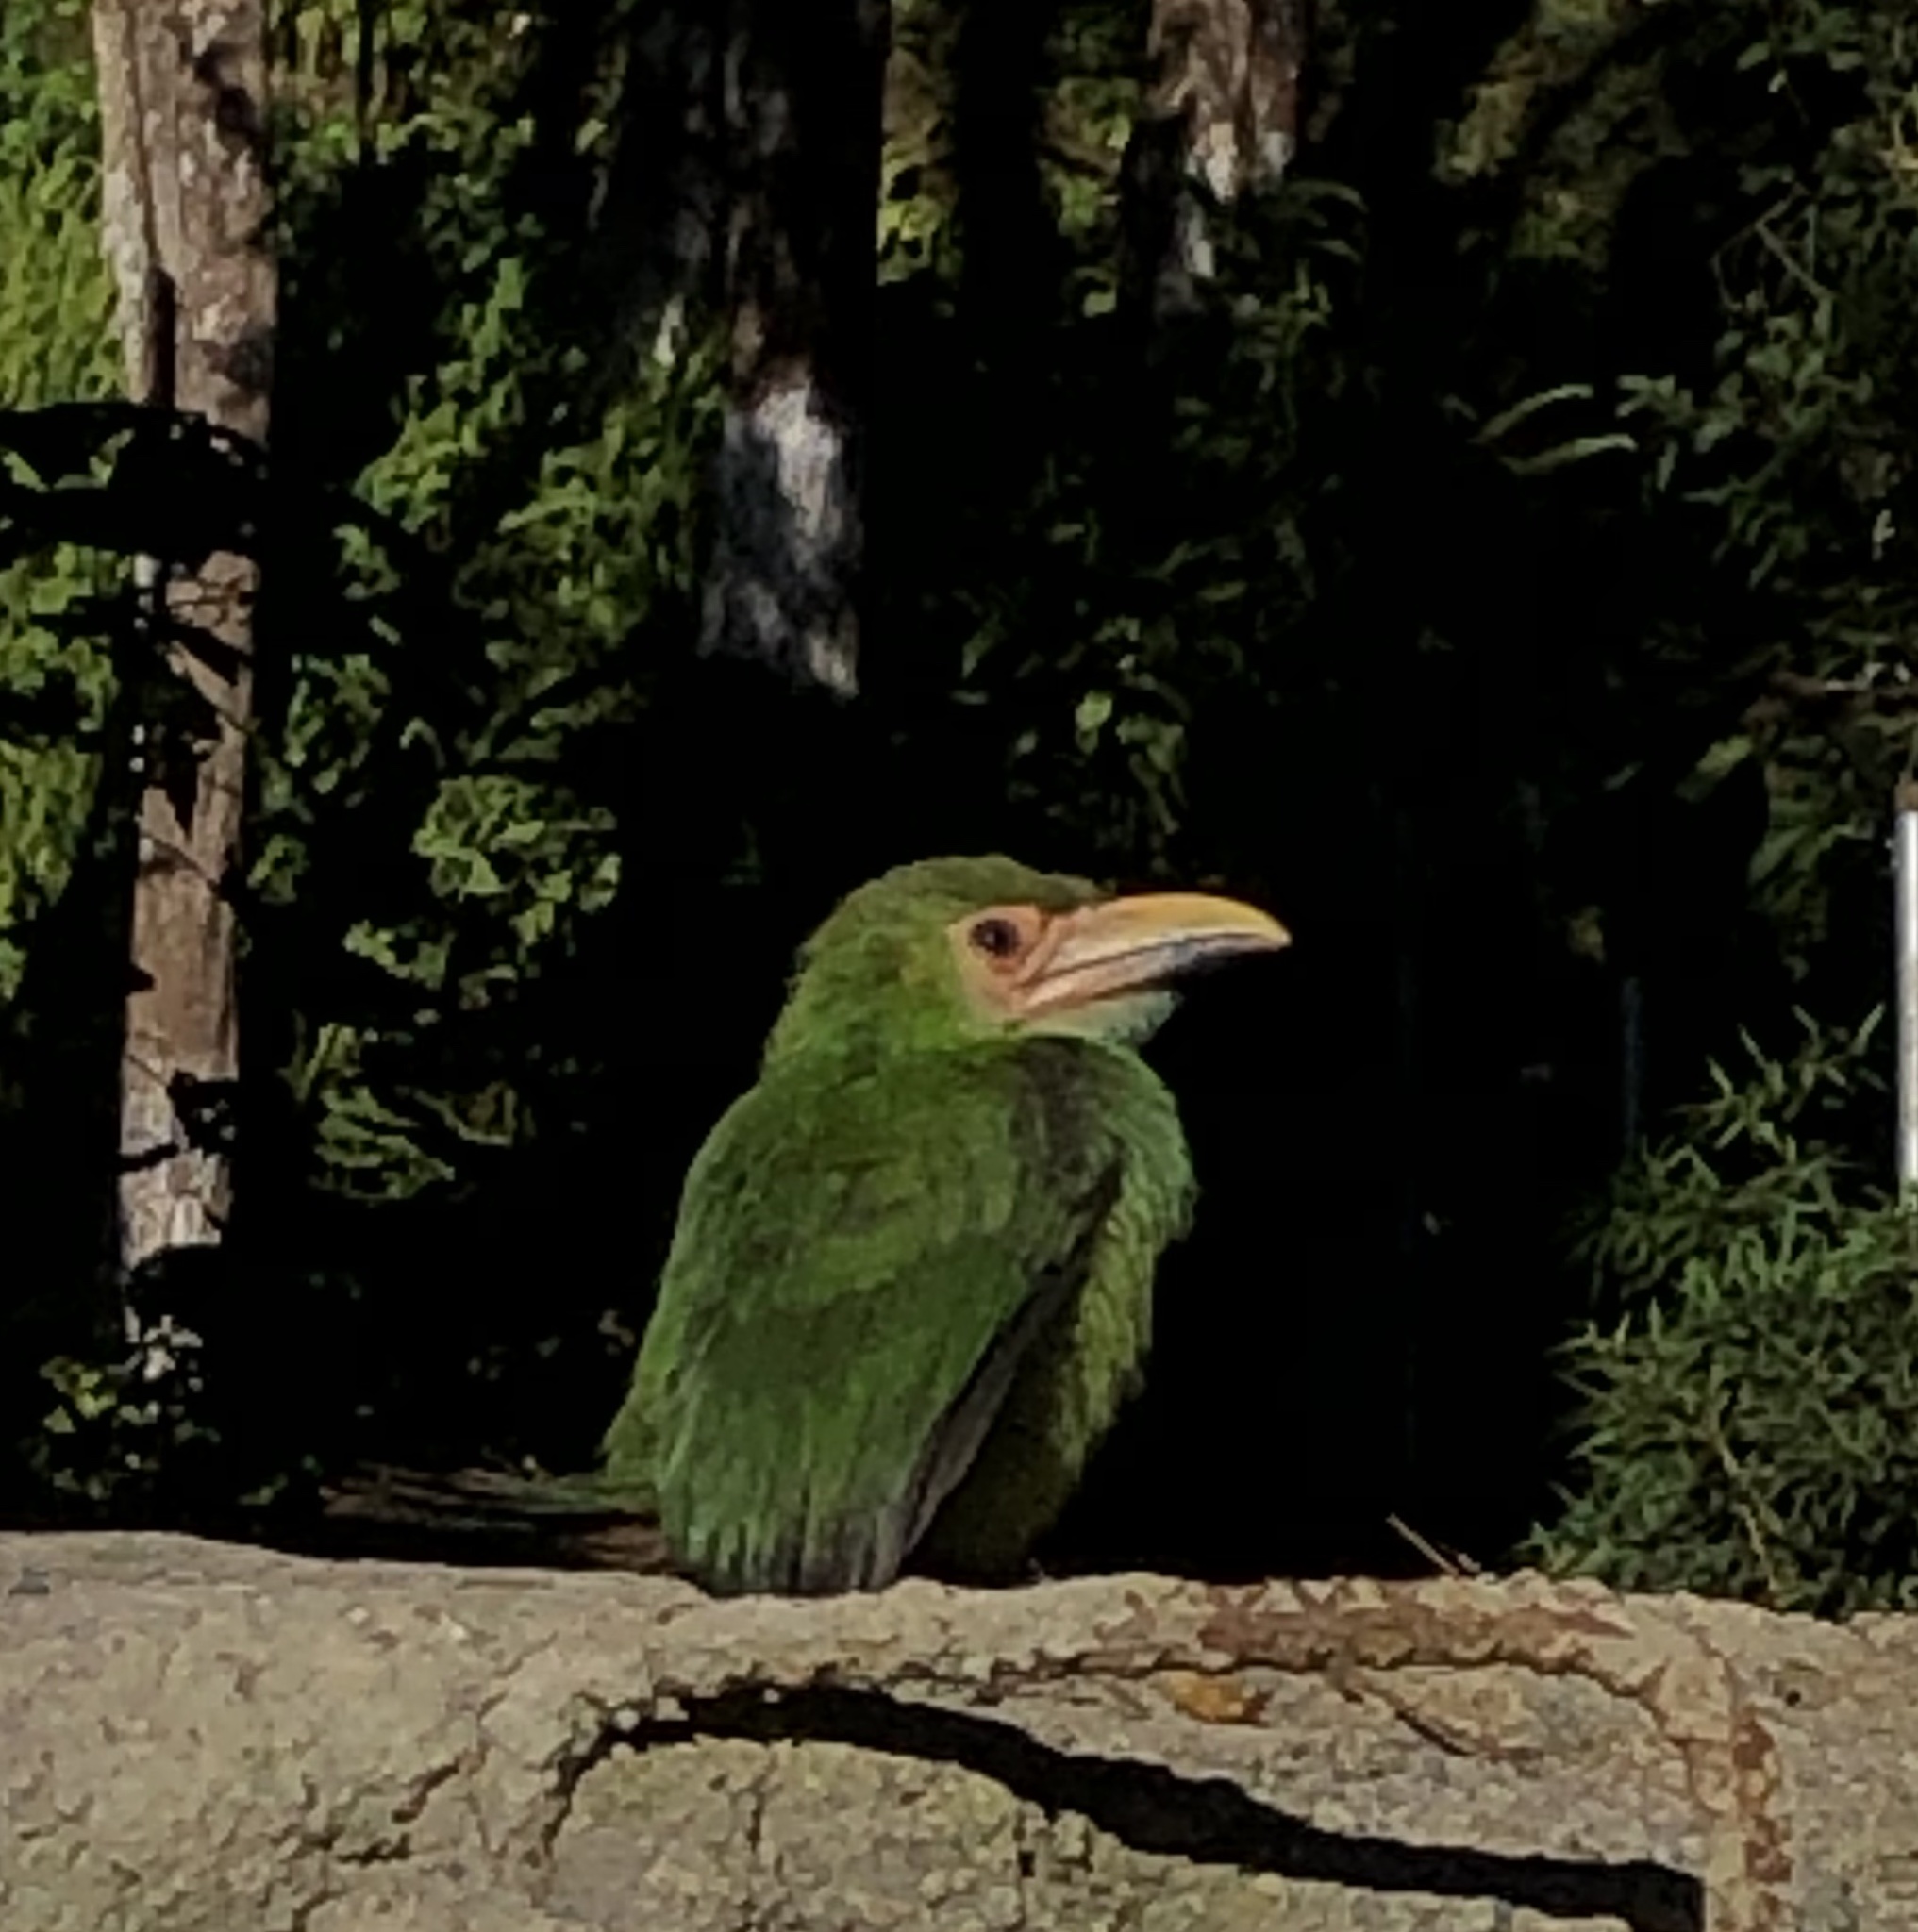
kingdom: Animalia
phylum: Chordata
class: Aves
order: Piciformes
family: Ramphastidae
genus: Aulacorhynchus
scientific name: Aulacorhynchus prasinus
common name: Emerald toucanet
